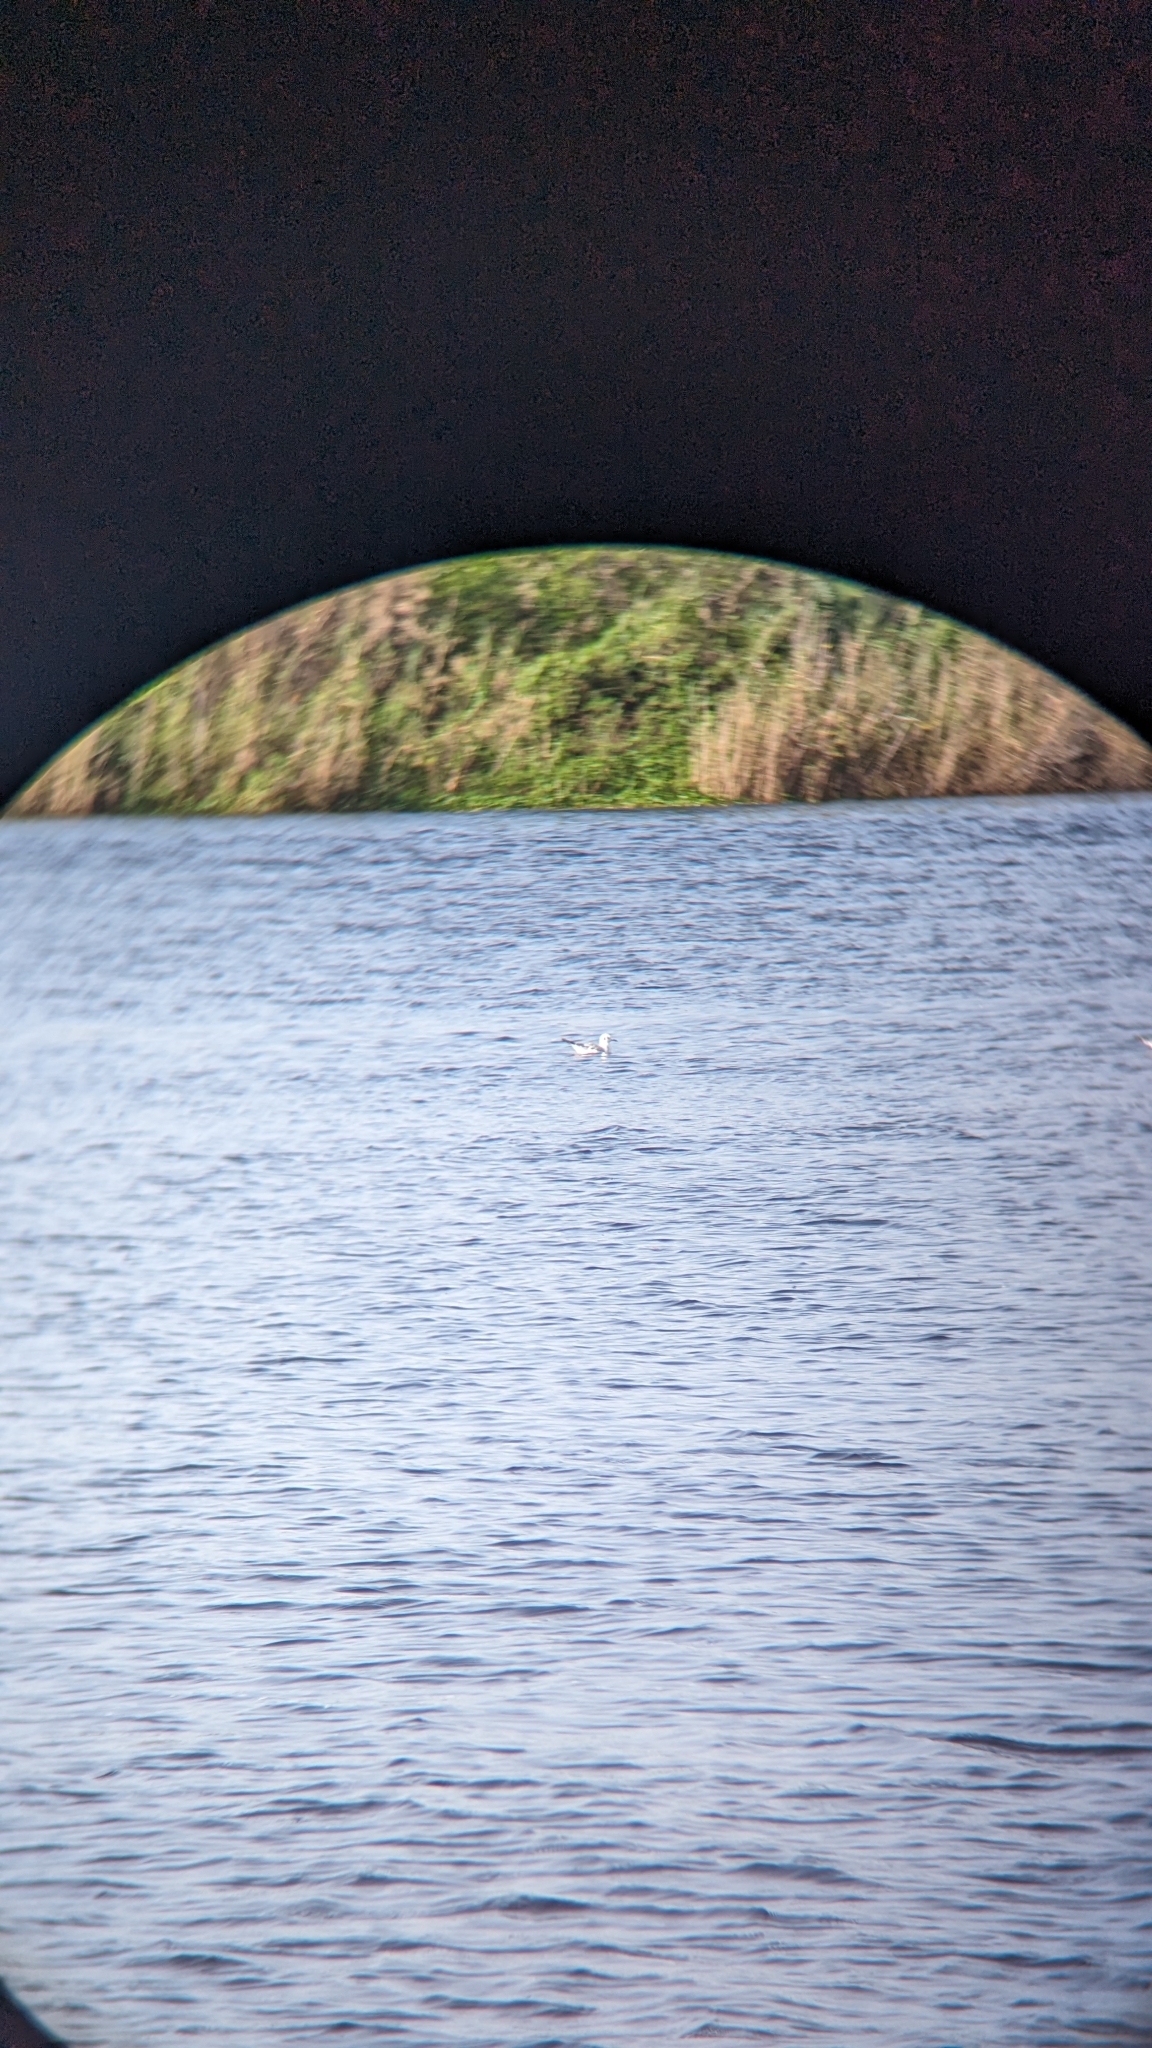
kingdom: Animalia
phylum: Chordata
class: Aves
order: Charadriiformes
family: Laridae
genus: Chroicocephalus
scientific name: Chroicocephalus philadelphia
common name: Bonaparte's gull
